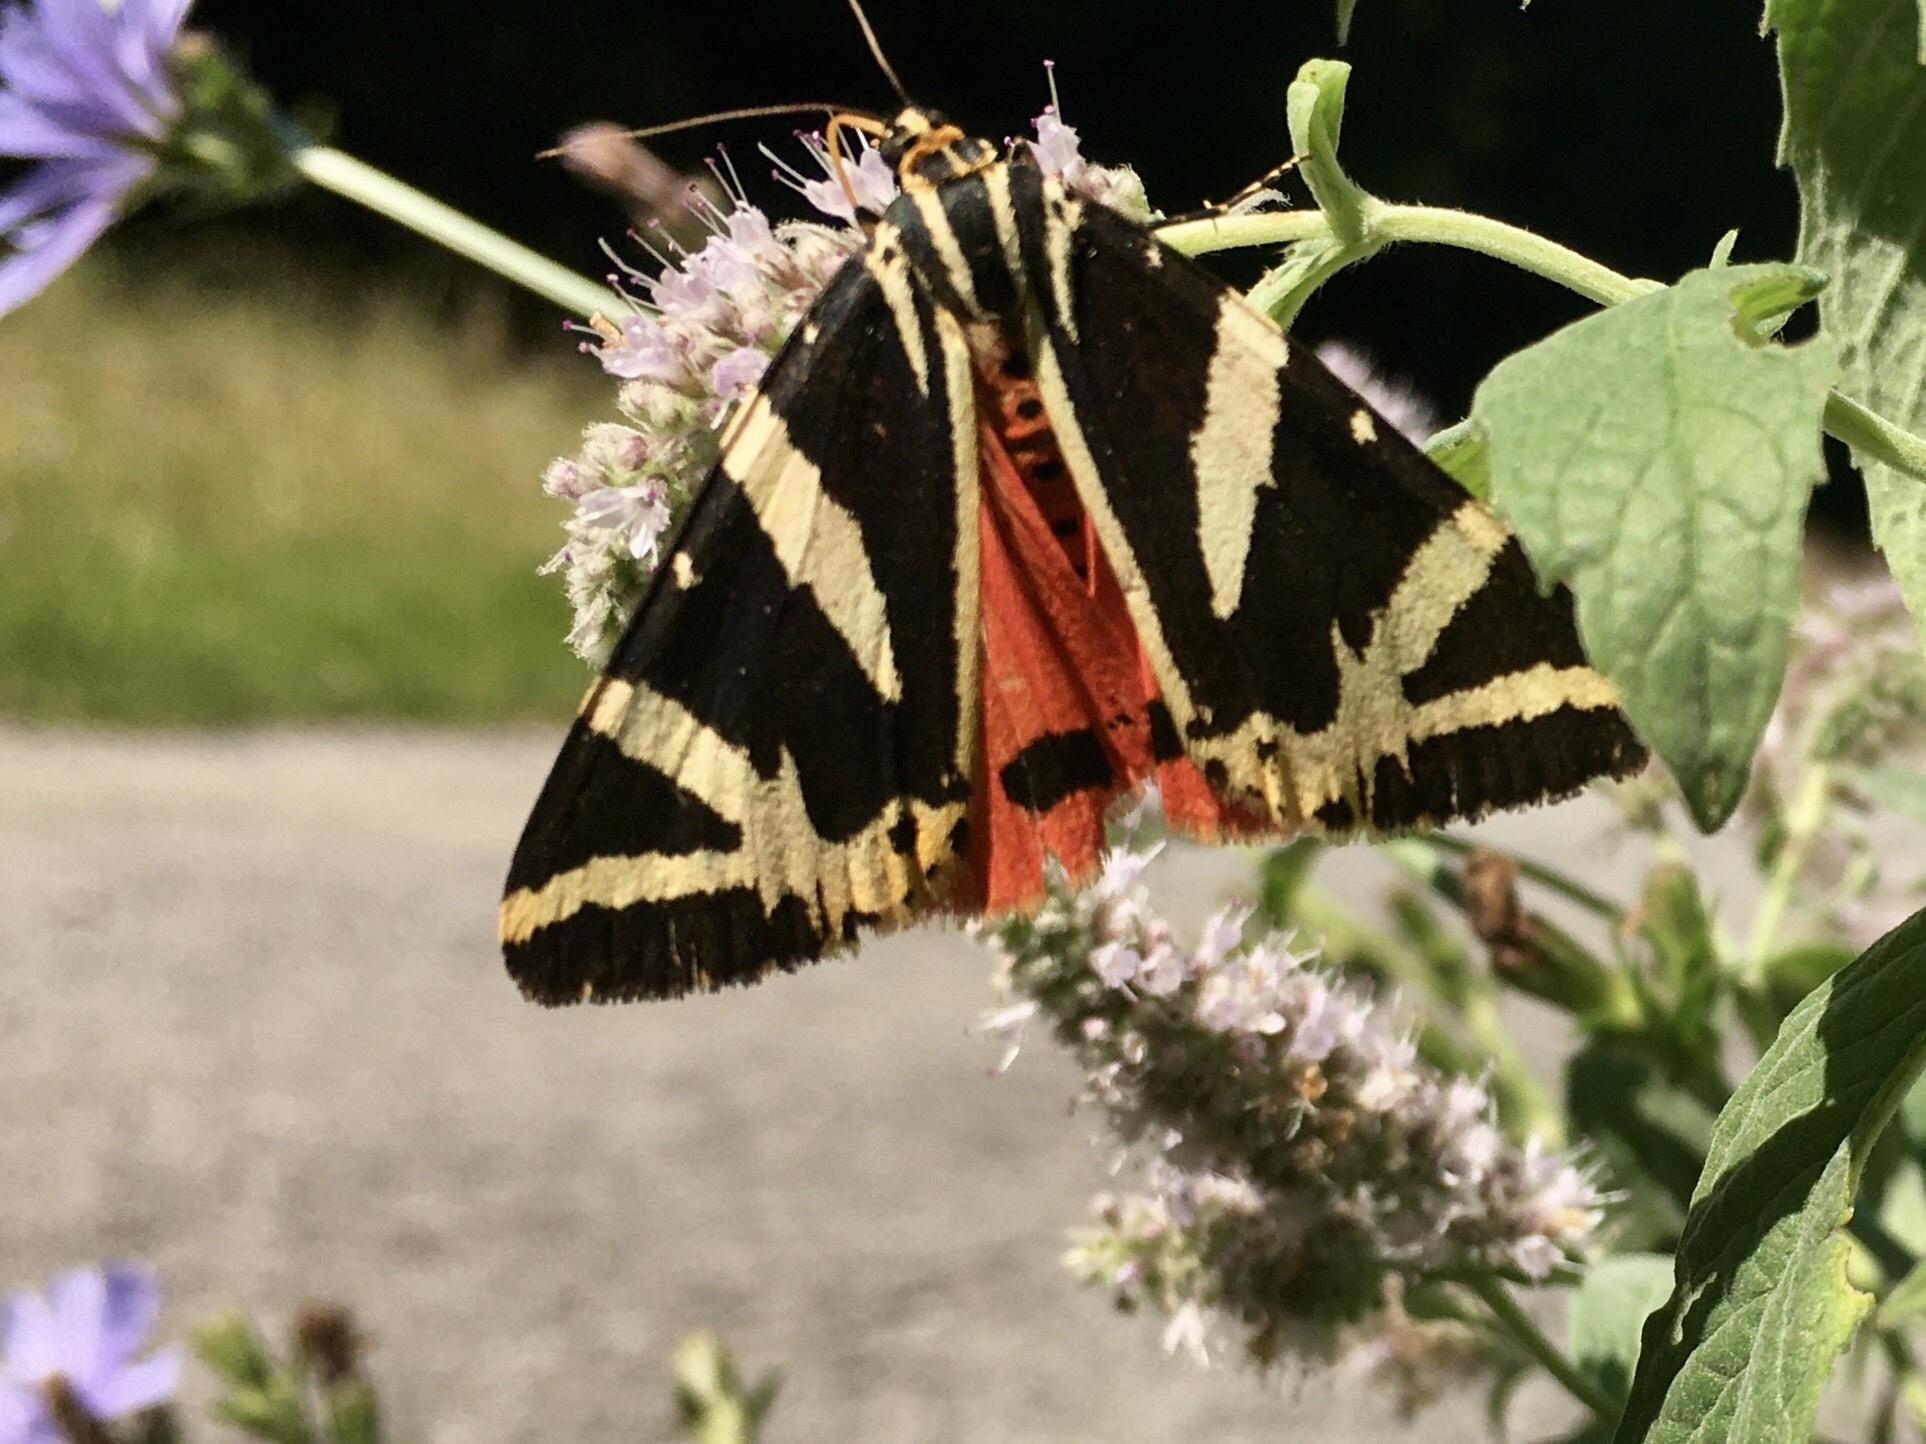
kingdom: Animalia
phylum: Arthropoda
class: Insecta
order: Lepidoptera
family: Erebidae
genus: Euplagia
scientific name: Euplagia quadripunctaria
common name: Jersey tiger
